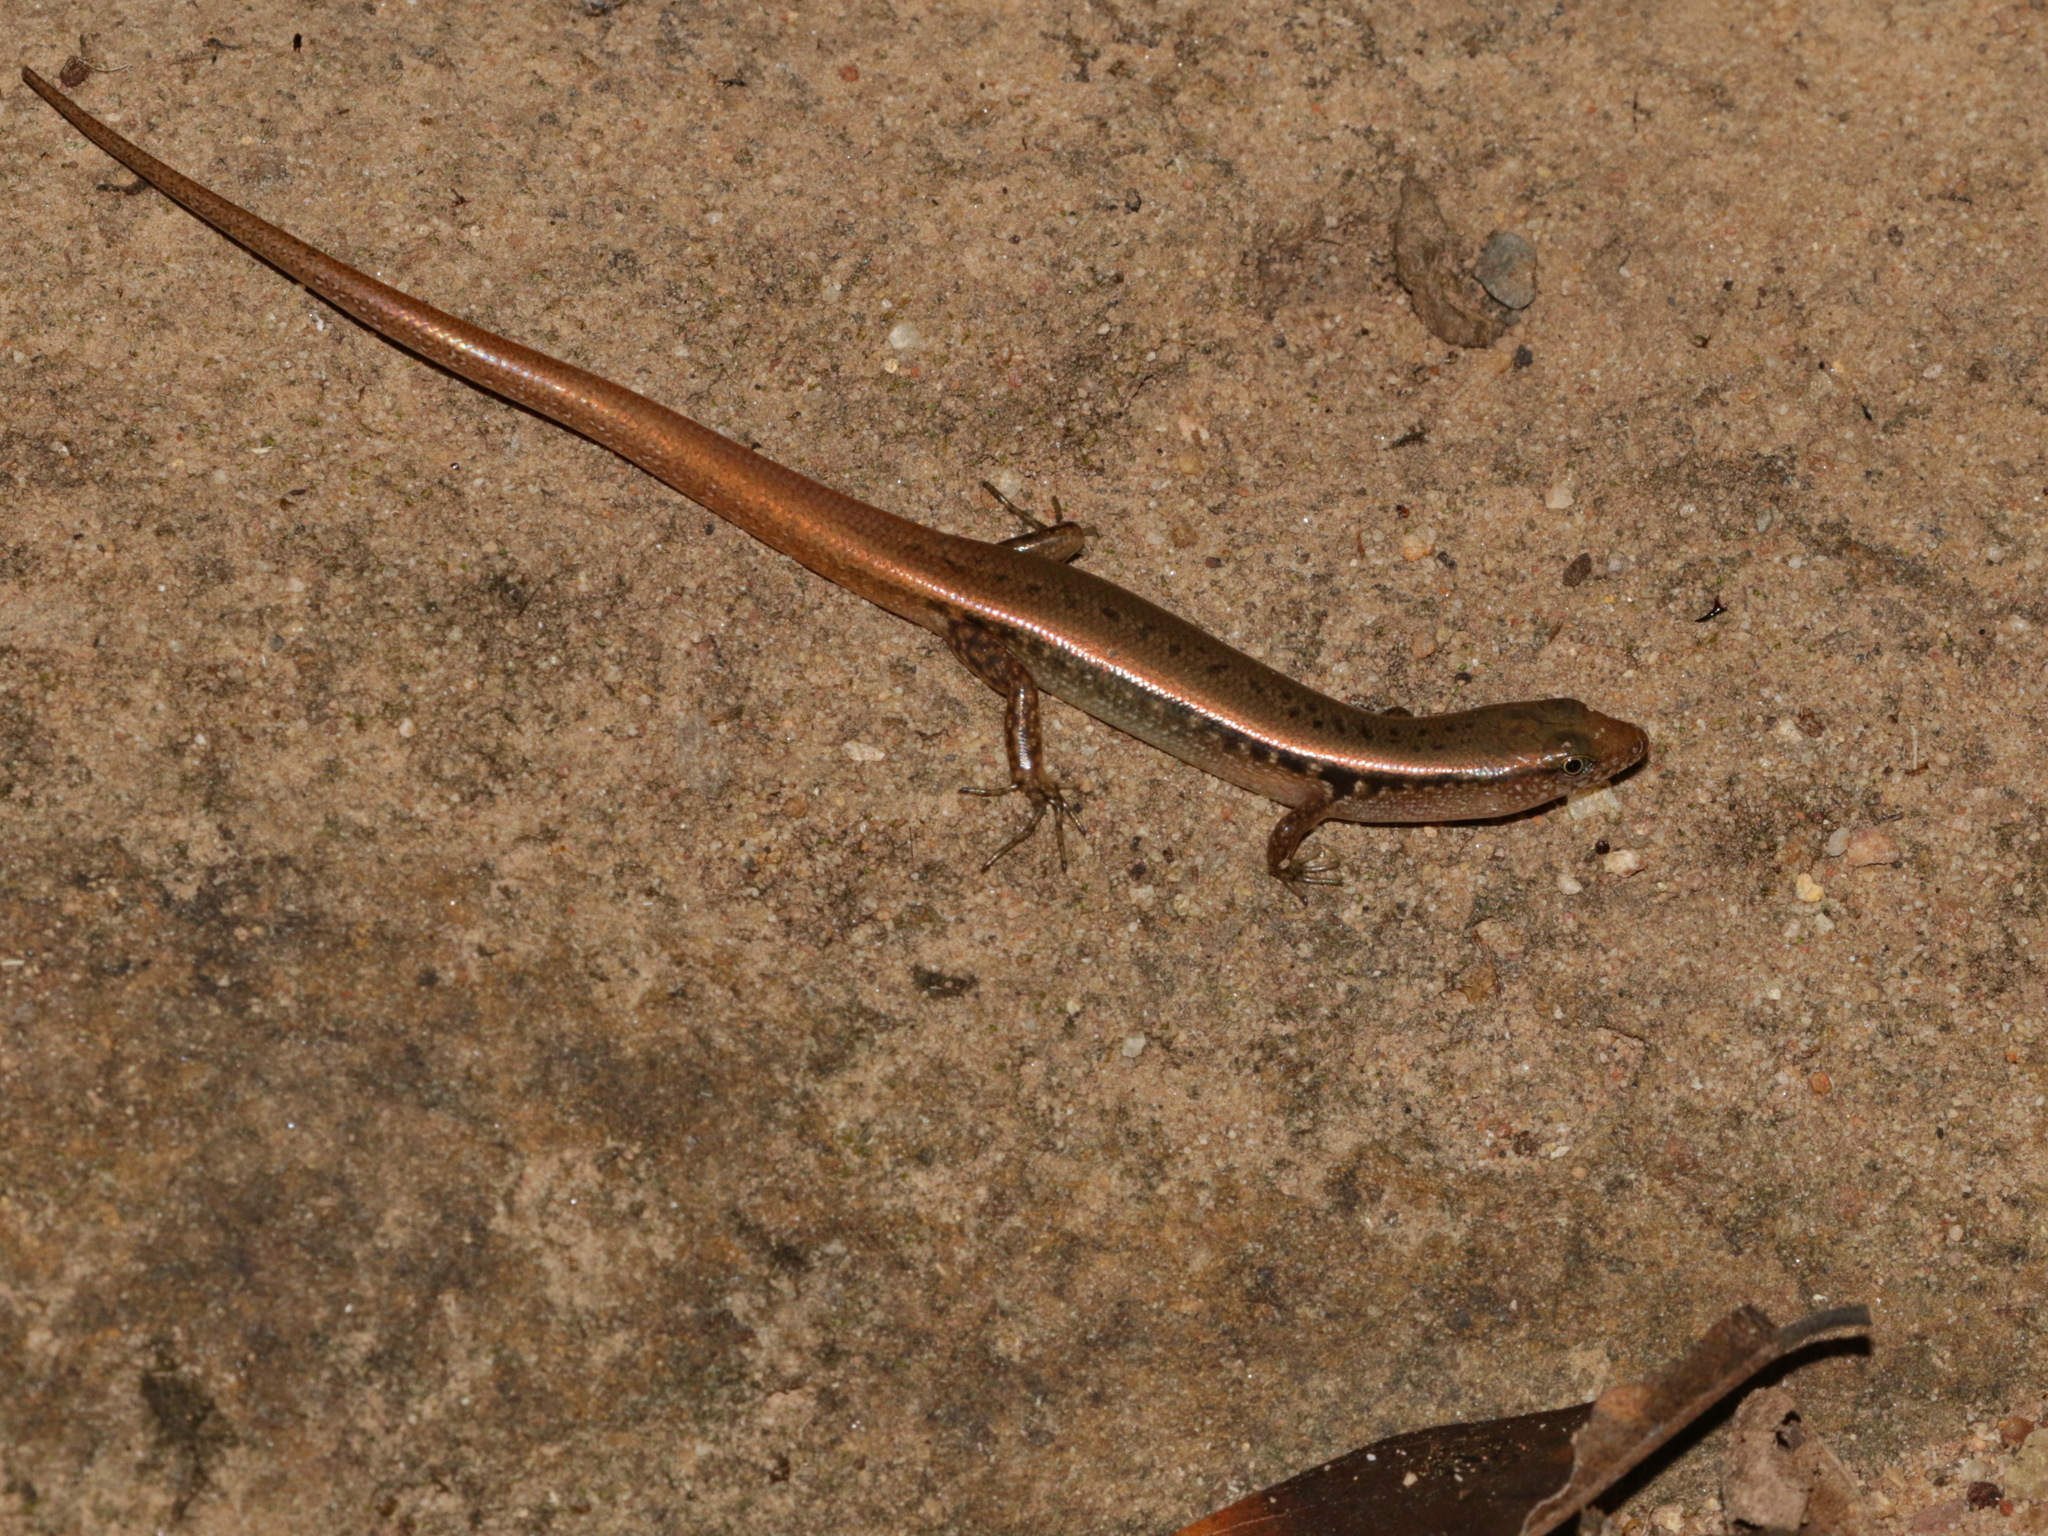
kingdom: Animalia
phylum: Chordata
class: Squamata
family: Scincidae
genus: Scincella
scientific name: Scincella rupicola
